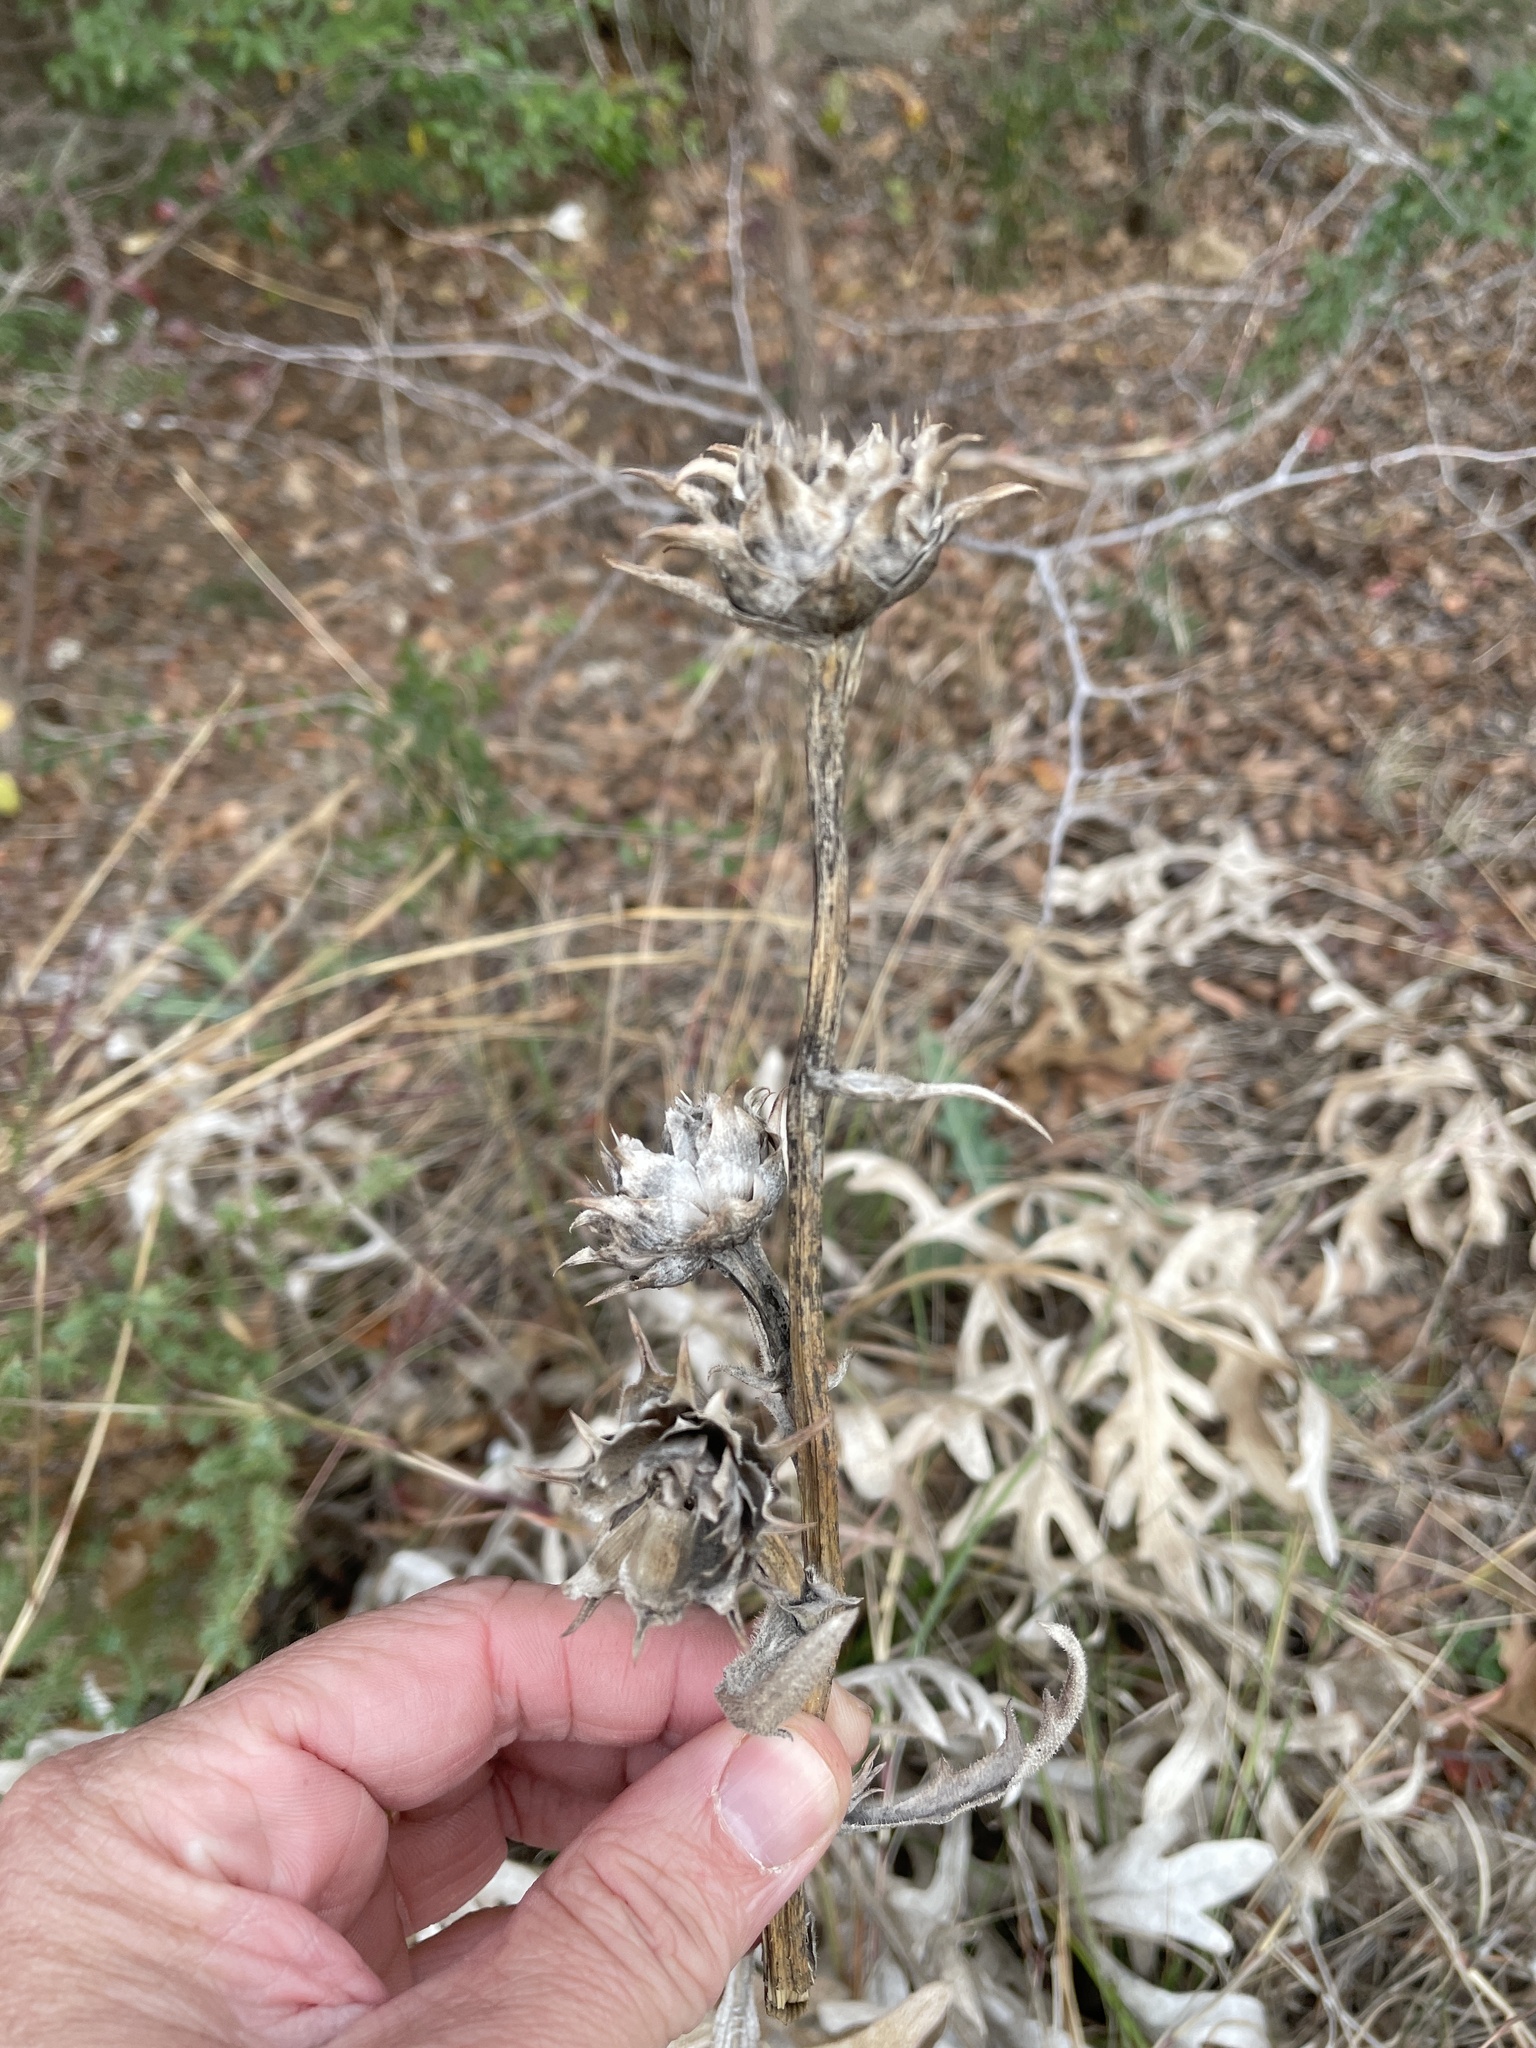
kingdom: Plantae
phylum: Tracheophyta
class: Magnoliopsida
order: Asterales
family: Asteraceae
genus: Silphium
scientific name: Silphium albiflorum
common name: White rosinweed
